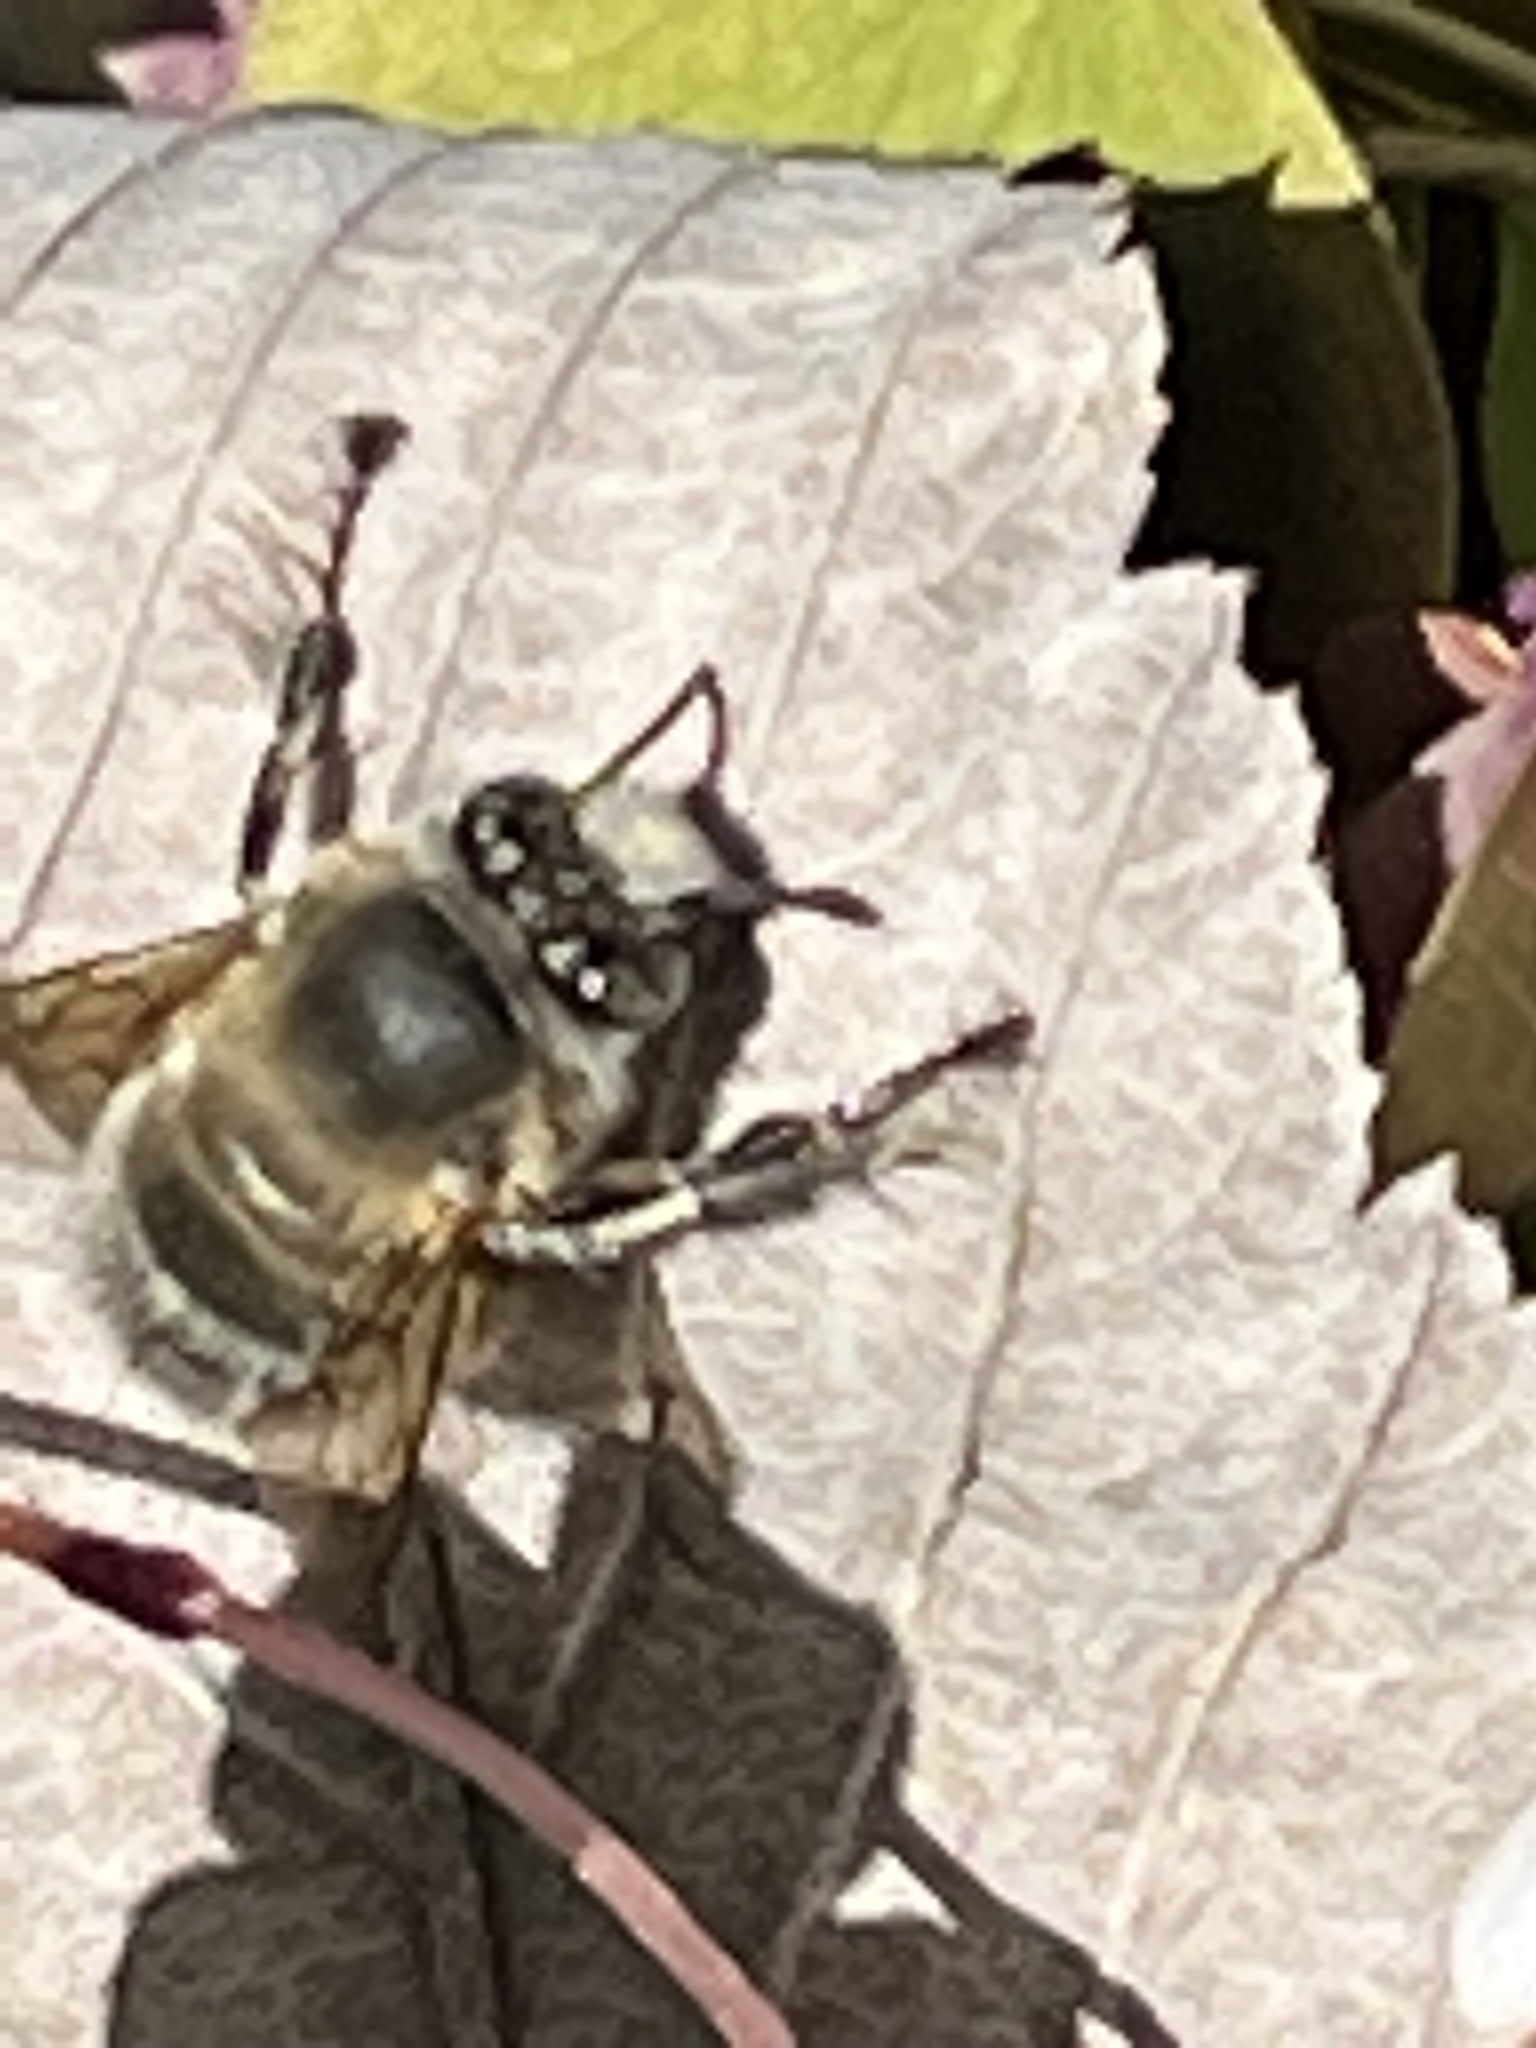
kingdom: Animalia
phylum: Arthropoda
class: Insecta
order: Hymenoptera
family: Apidae
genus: Anthophora
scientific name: Anthophora plumipes
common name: Hairy-footed flower bee
